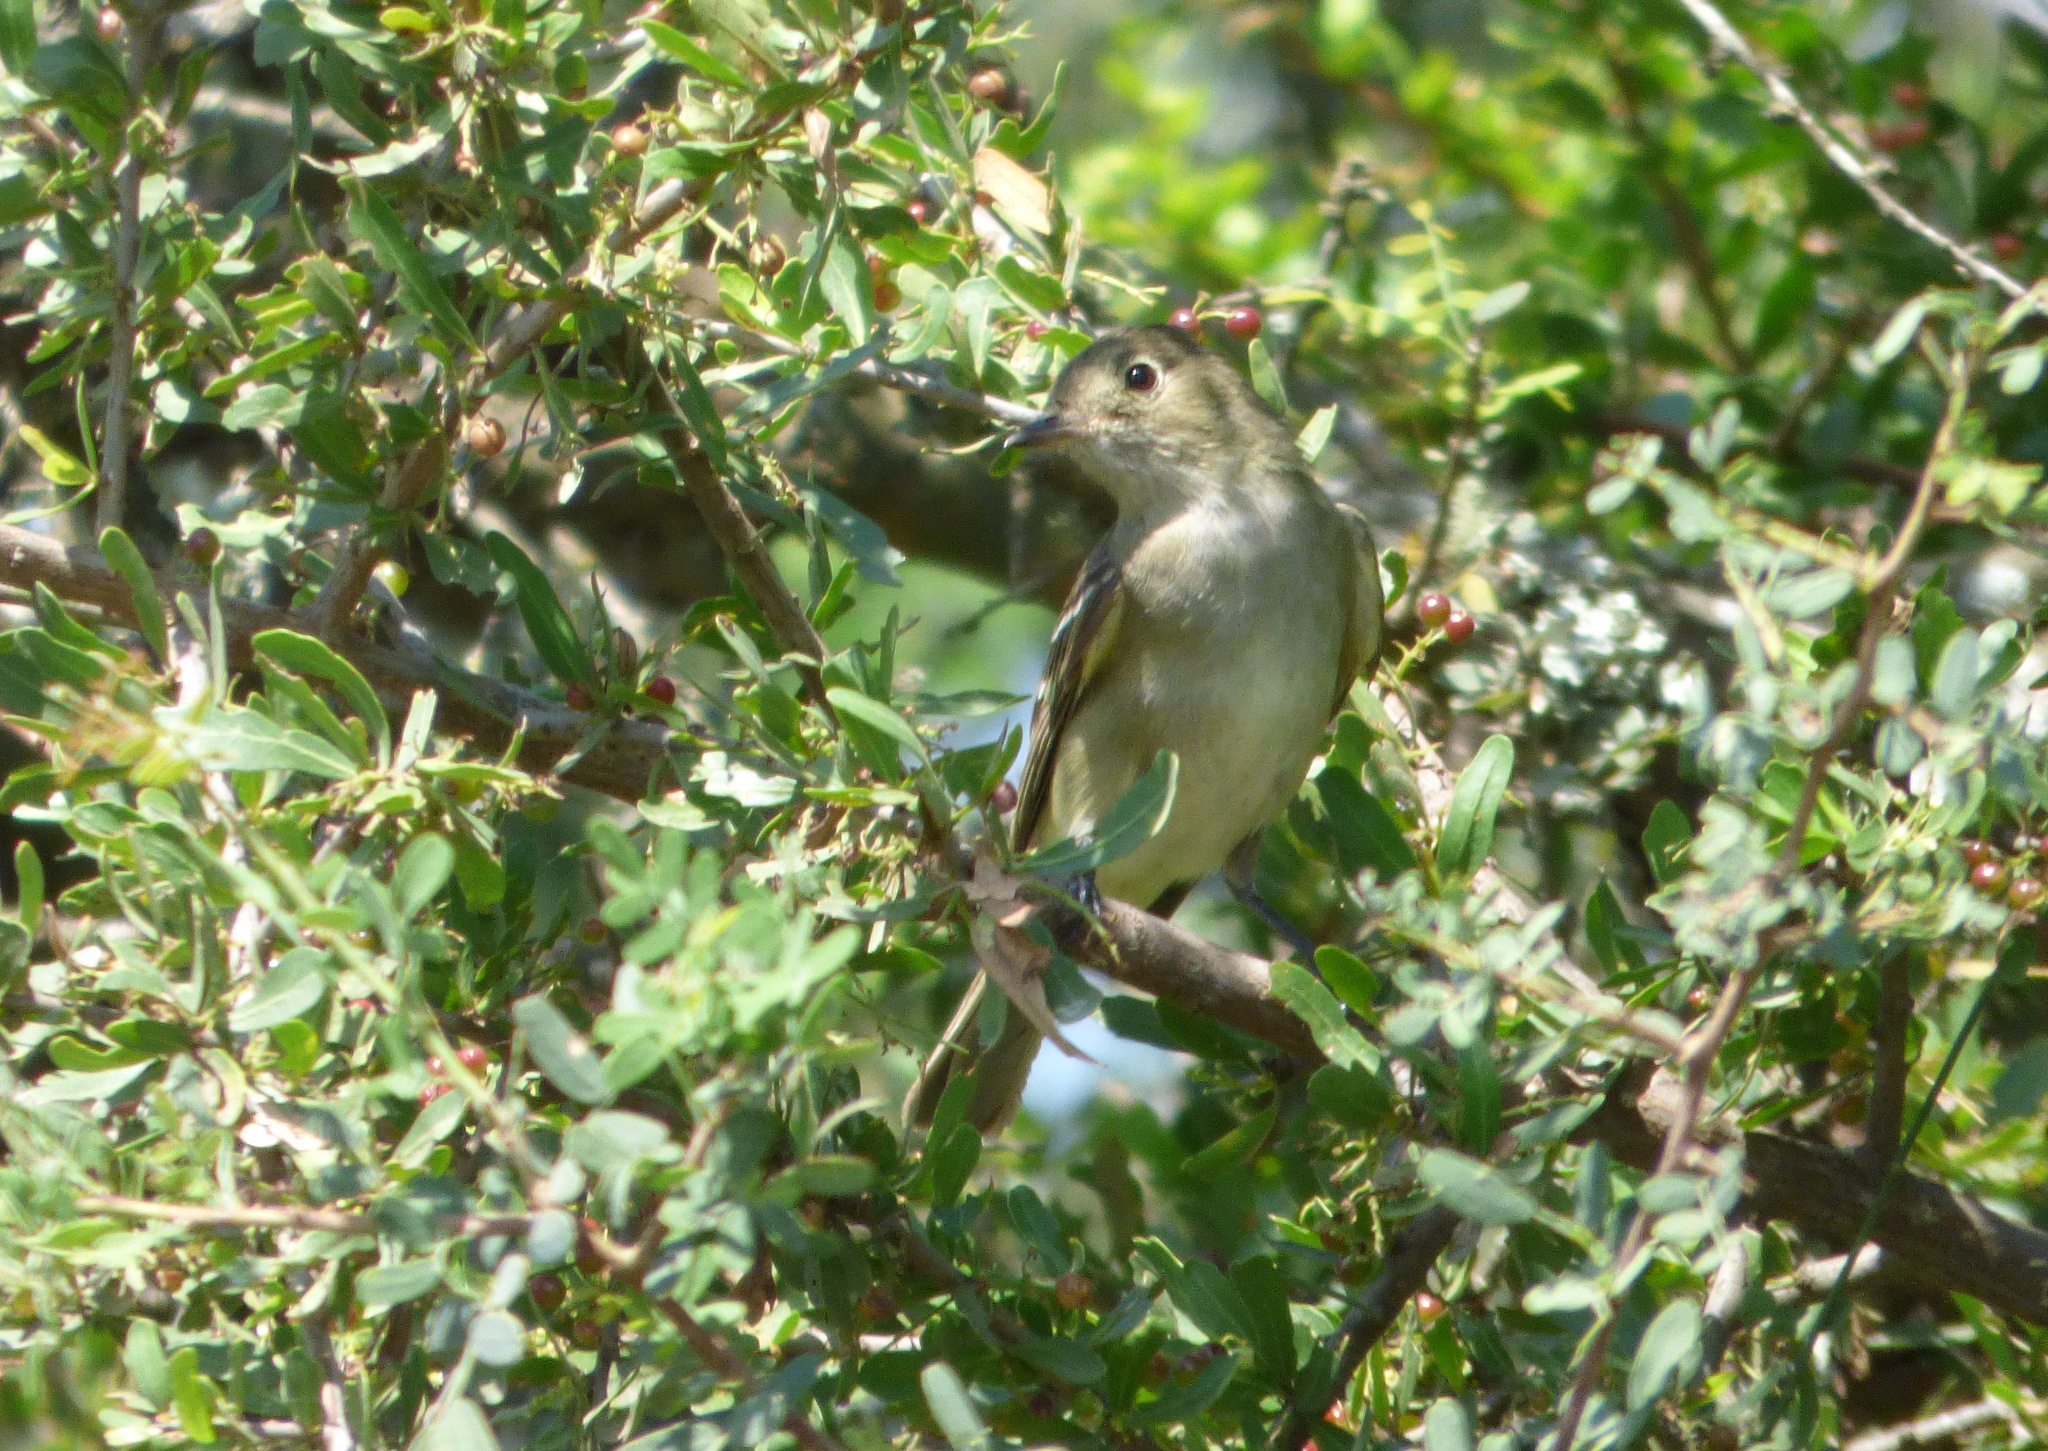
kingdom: Animalia
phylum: Chordata
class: Aves
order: Passeriformes
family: Tyrannidae
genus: Elaenia
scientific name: Elaenia parvirostris
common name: Small-billed elaenia
